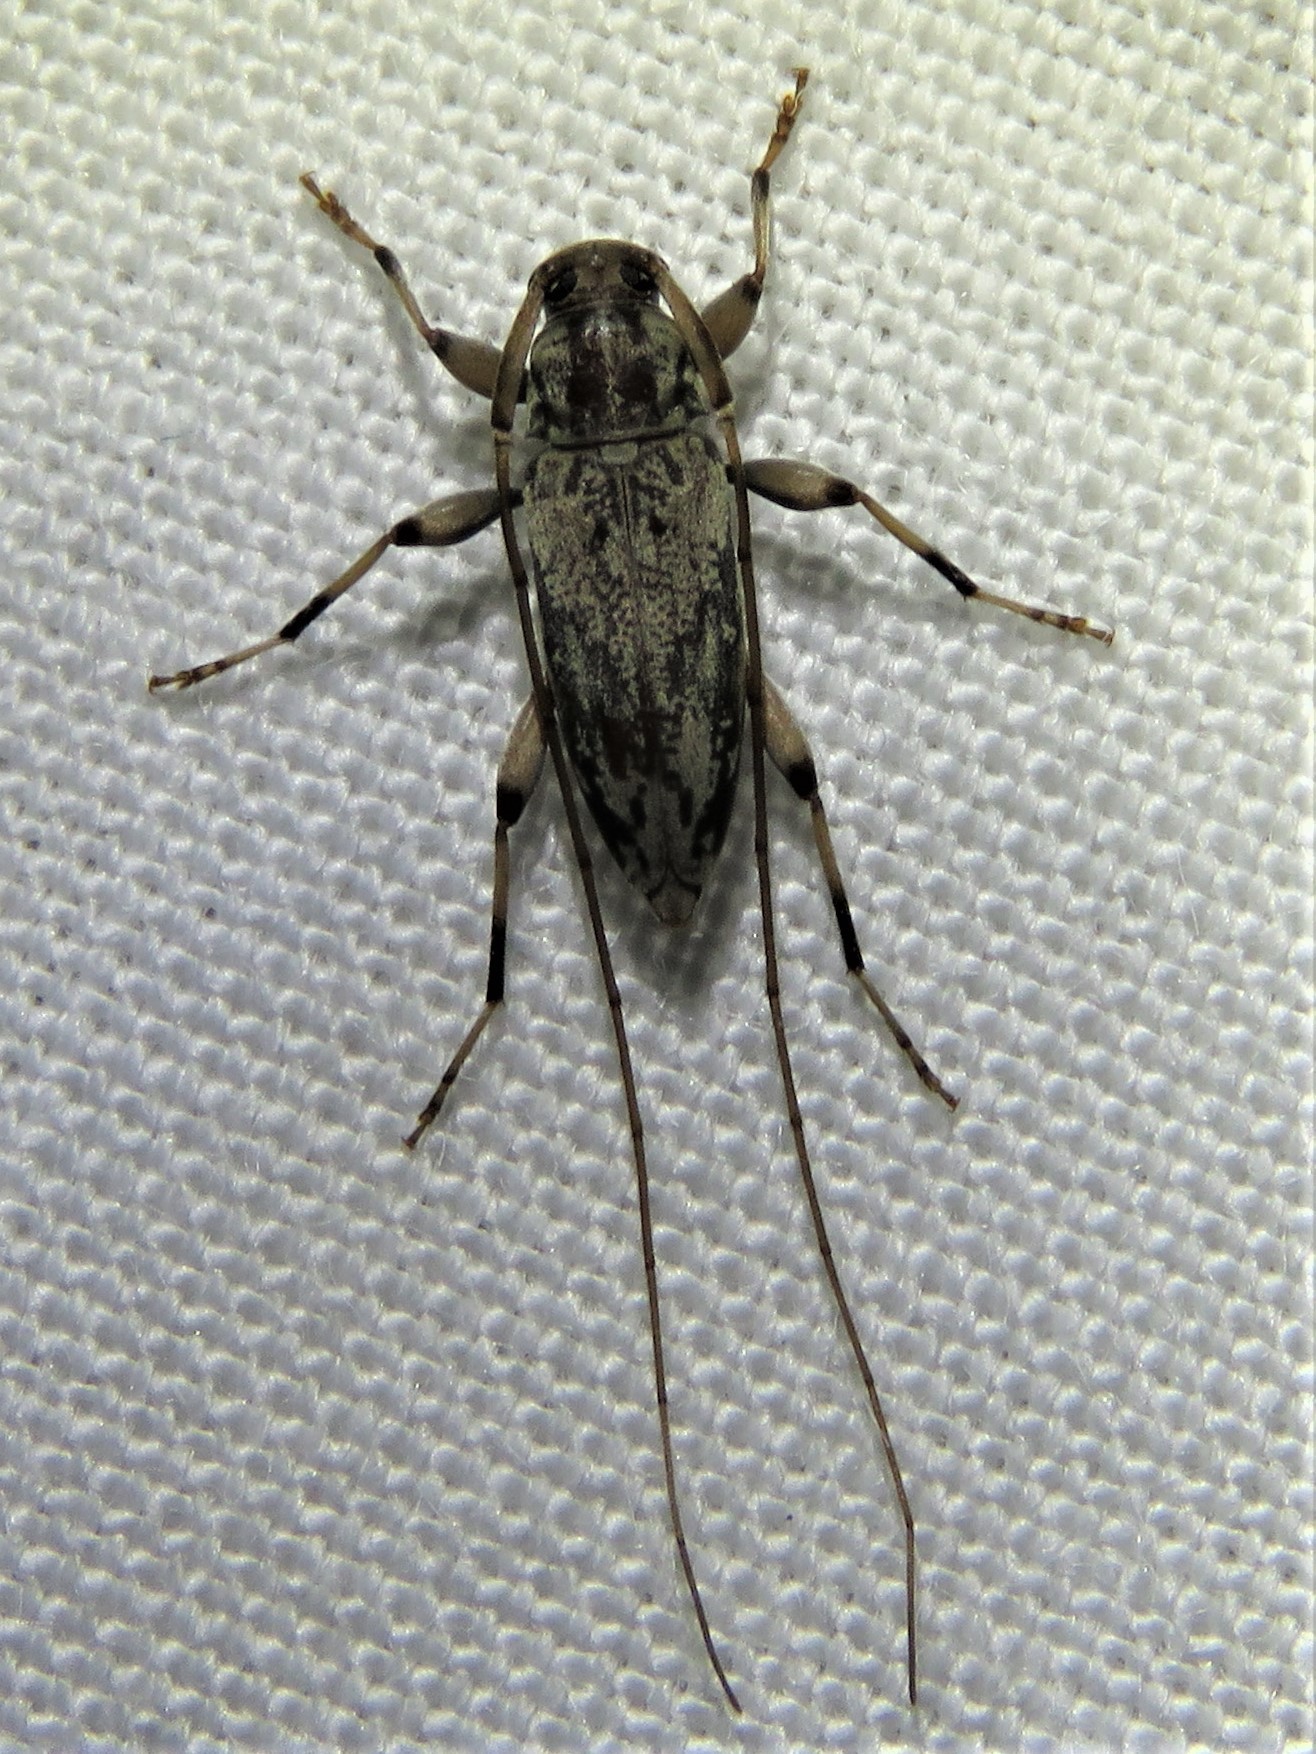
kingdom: Animalia
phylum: Arthropoda
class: Insecta
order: Coleoptera
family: Cerambycidae
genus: Lepturges
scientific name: Lepturges angulatus
